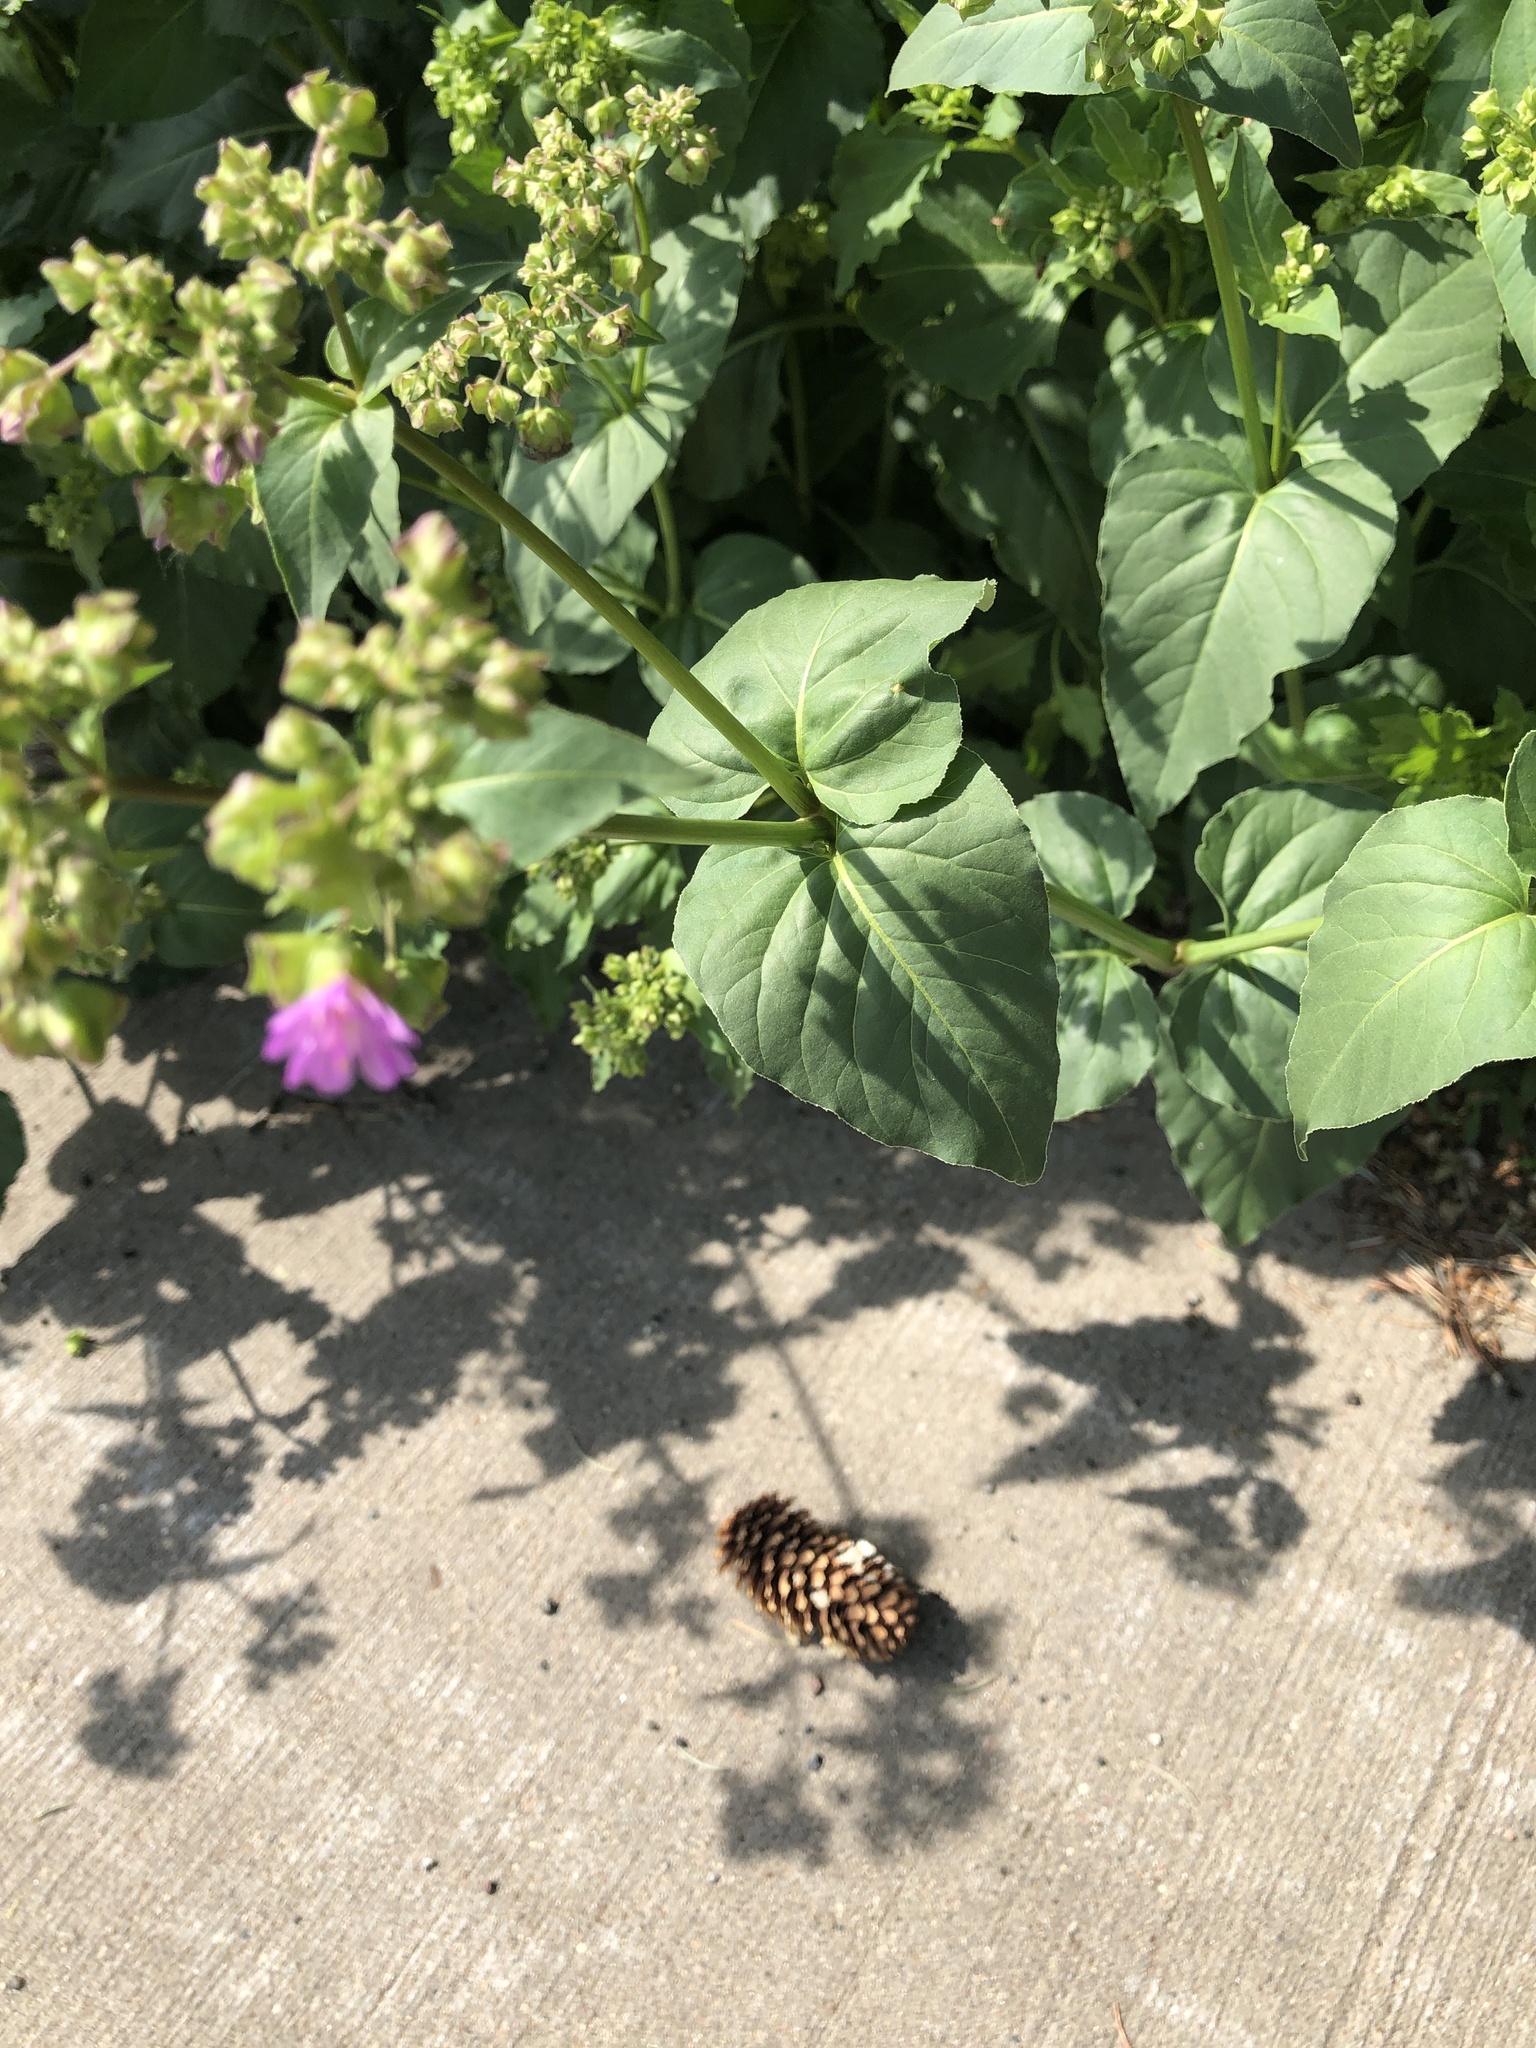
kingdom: Plantae
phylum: Tracheophyta
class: Magnoliopsida
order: Caryophyllales
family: Nyctaginaceae
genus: Mirabilis
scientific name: Mirabilis nyctaginea
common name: Umbrella wort
